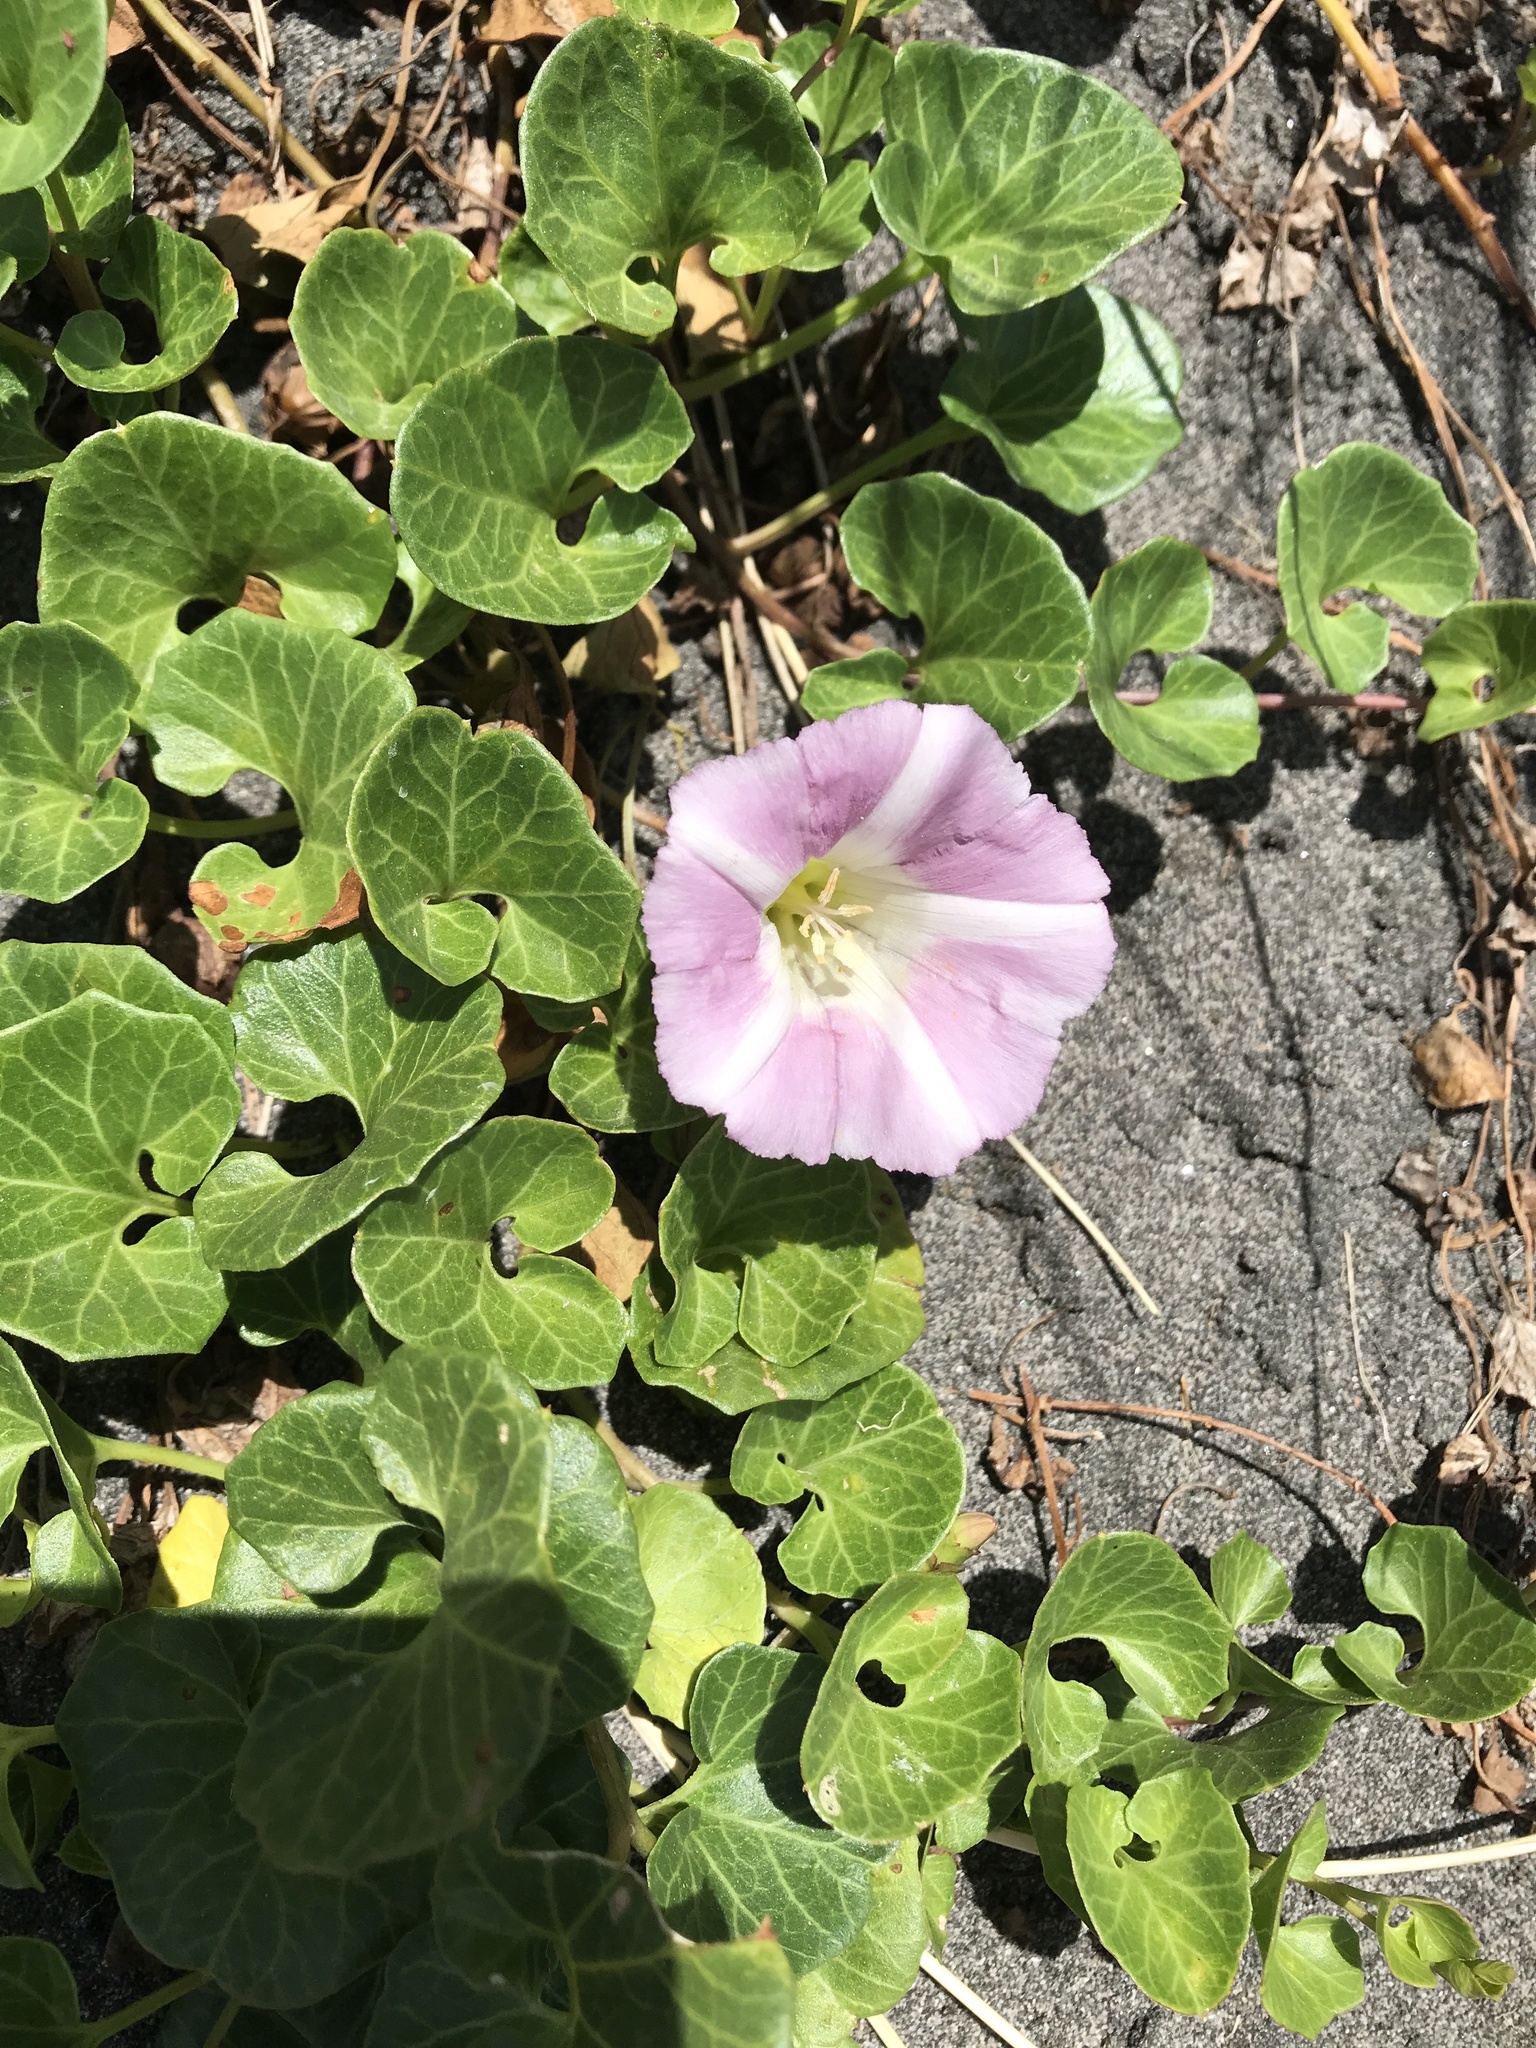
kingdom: Plantae
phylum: Tracheophyta
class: Magnoliopsida
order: Solanales
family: Convolvulaceae
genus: Calystegia
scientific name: Calystegia soldanella
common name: Sea bindweed
